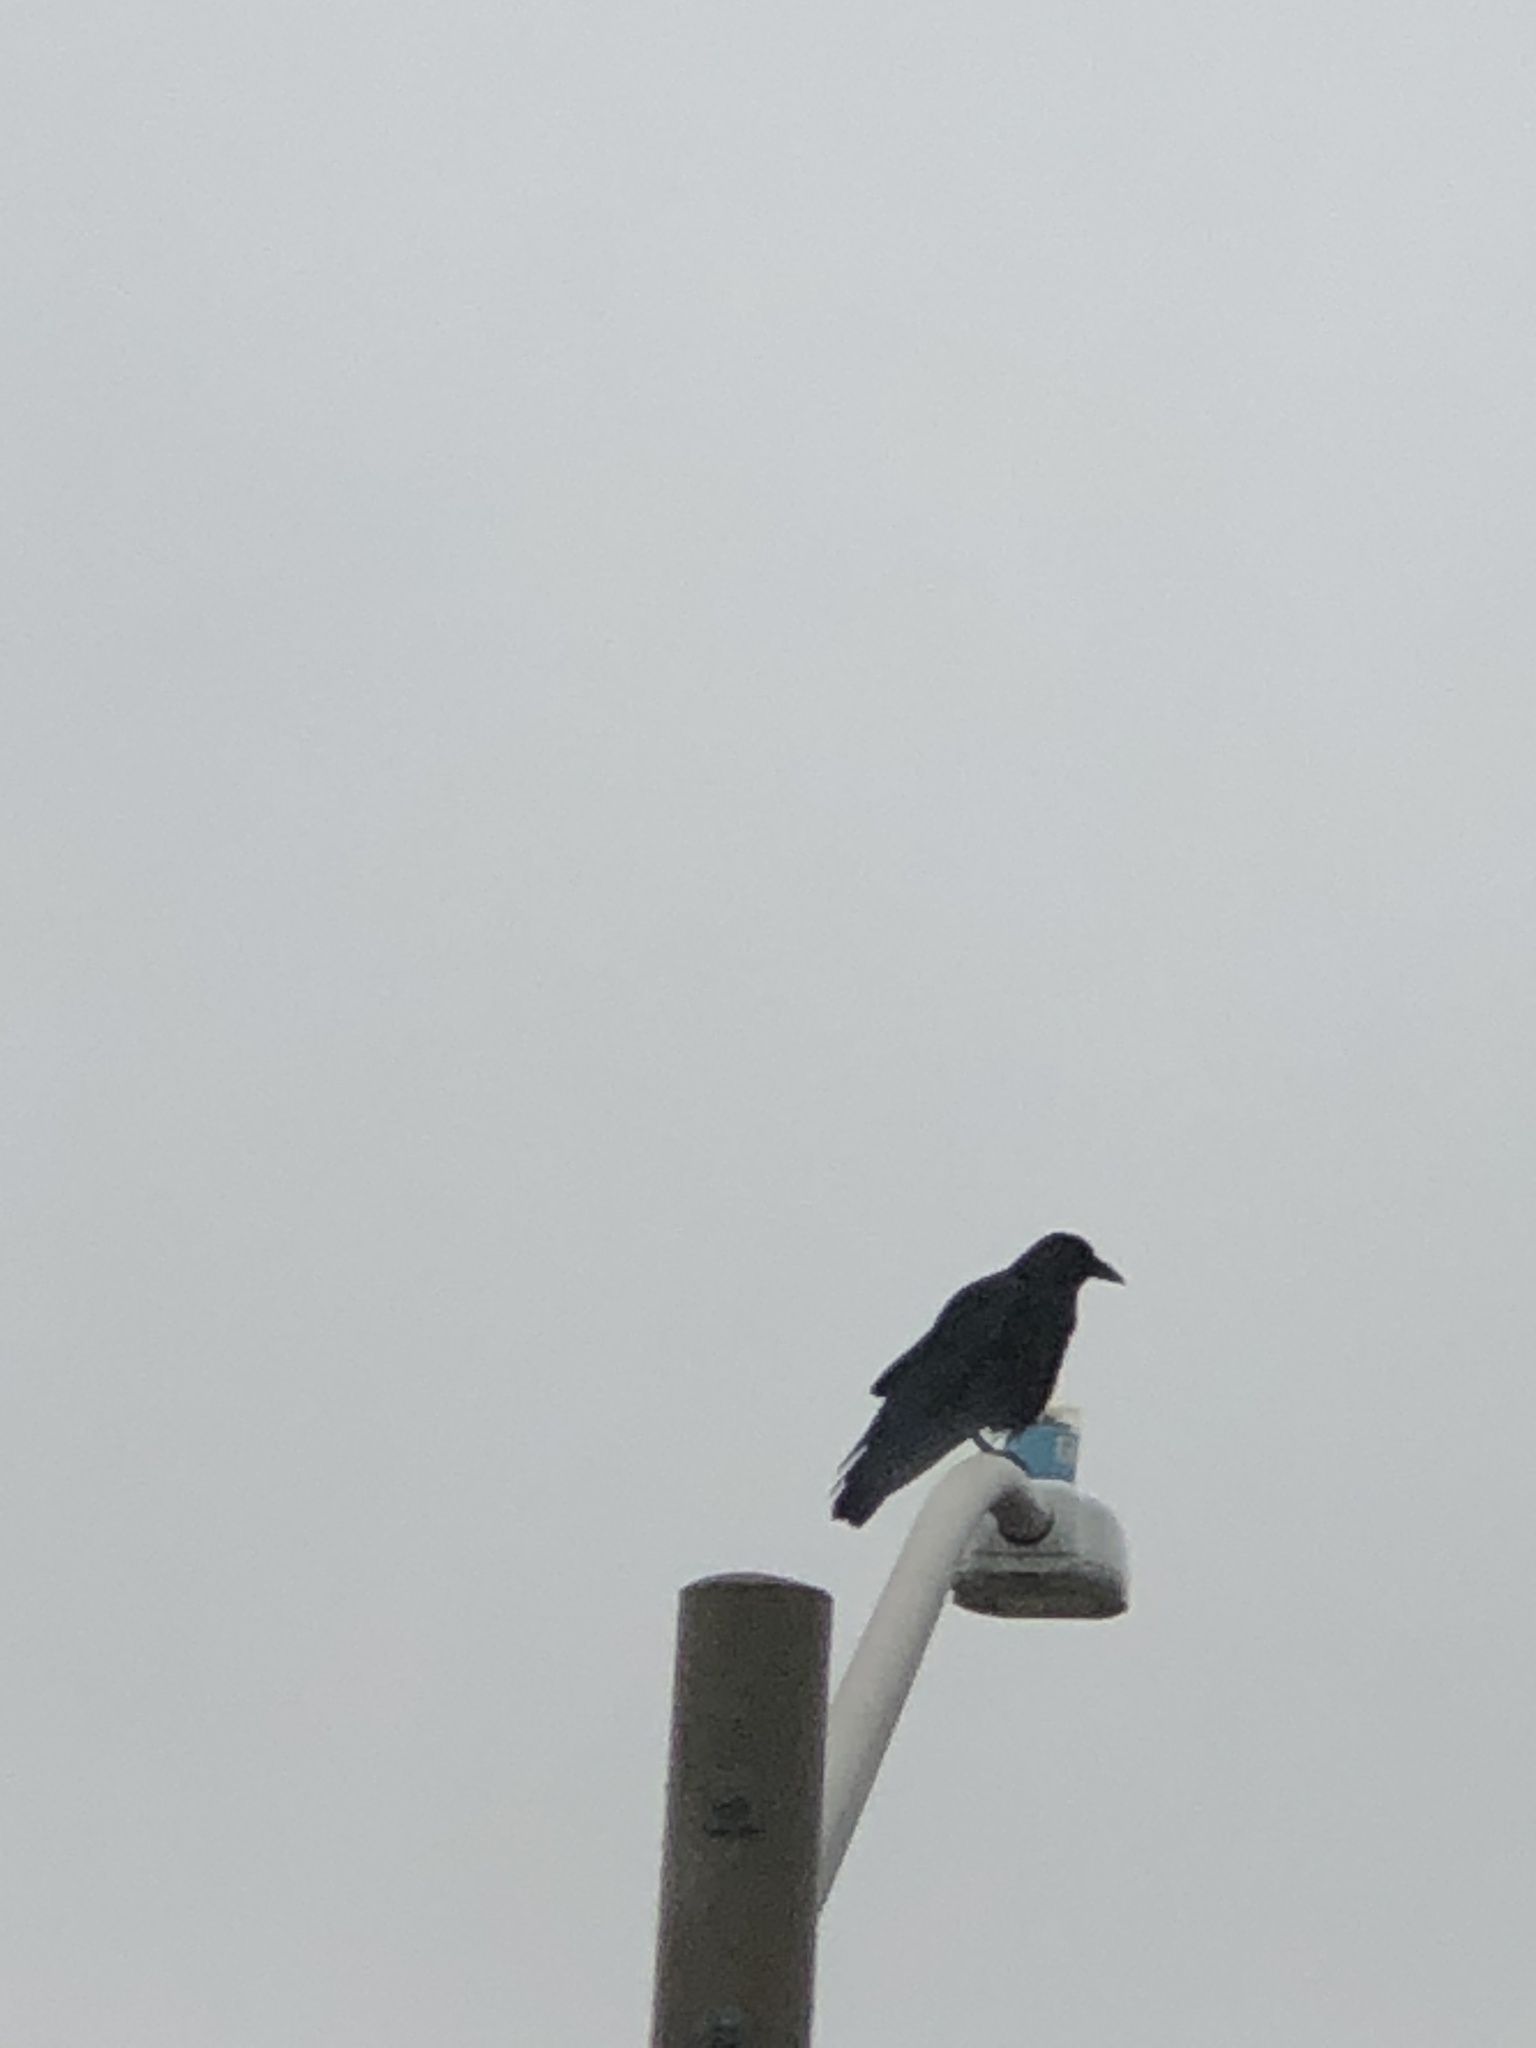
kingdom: Animalia
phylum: Chordata
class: Aves
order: Passeriformes
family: Corvidae
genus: Corvus
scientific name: Corvus brachyrhynchos
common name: American crow
